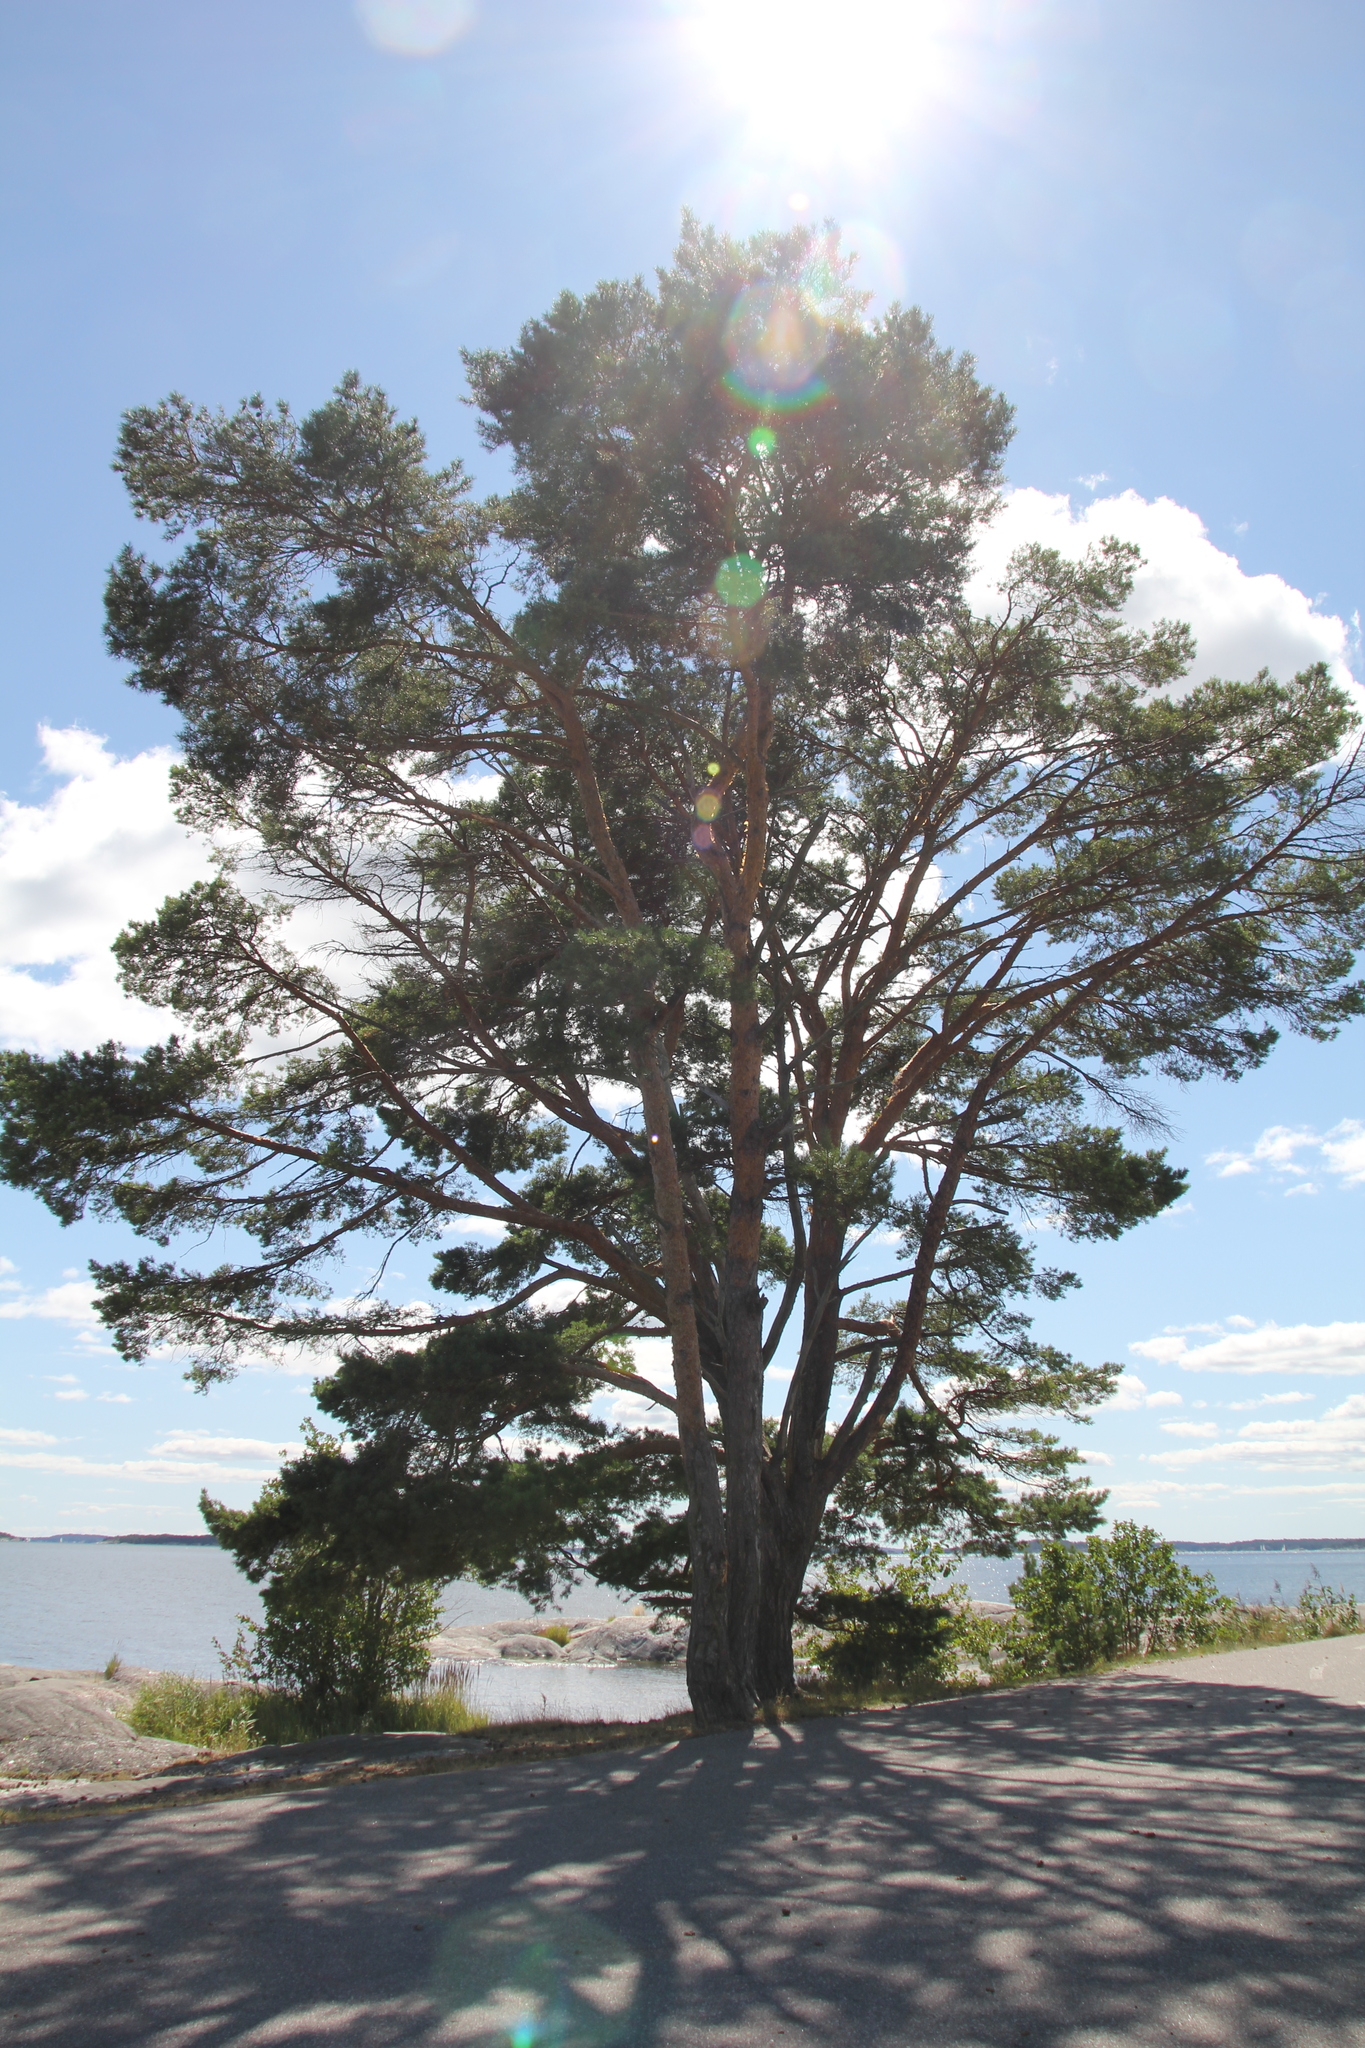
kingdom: Plantae
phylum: Tracheophyta
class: Pinopsida
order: Pinales
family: Pinaceae
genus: Pinus
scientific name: Pinus sylvestris
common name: Scots pine
